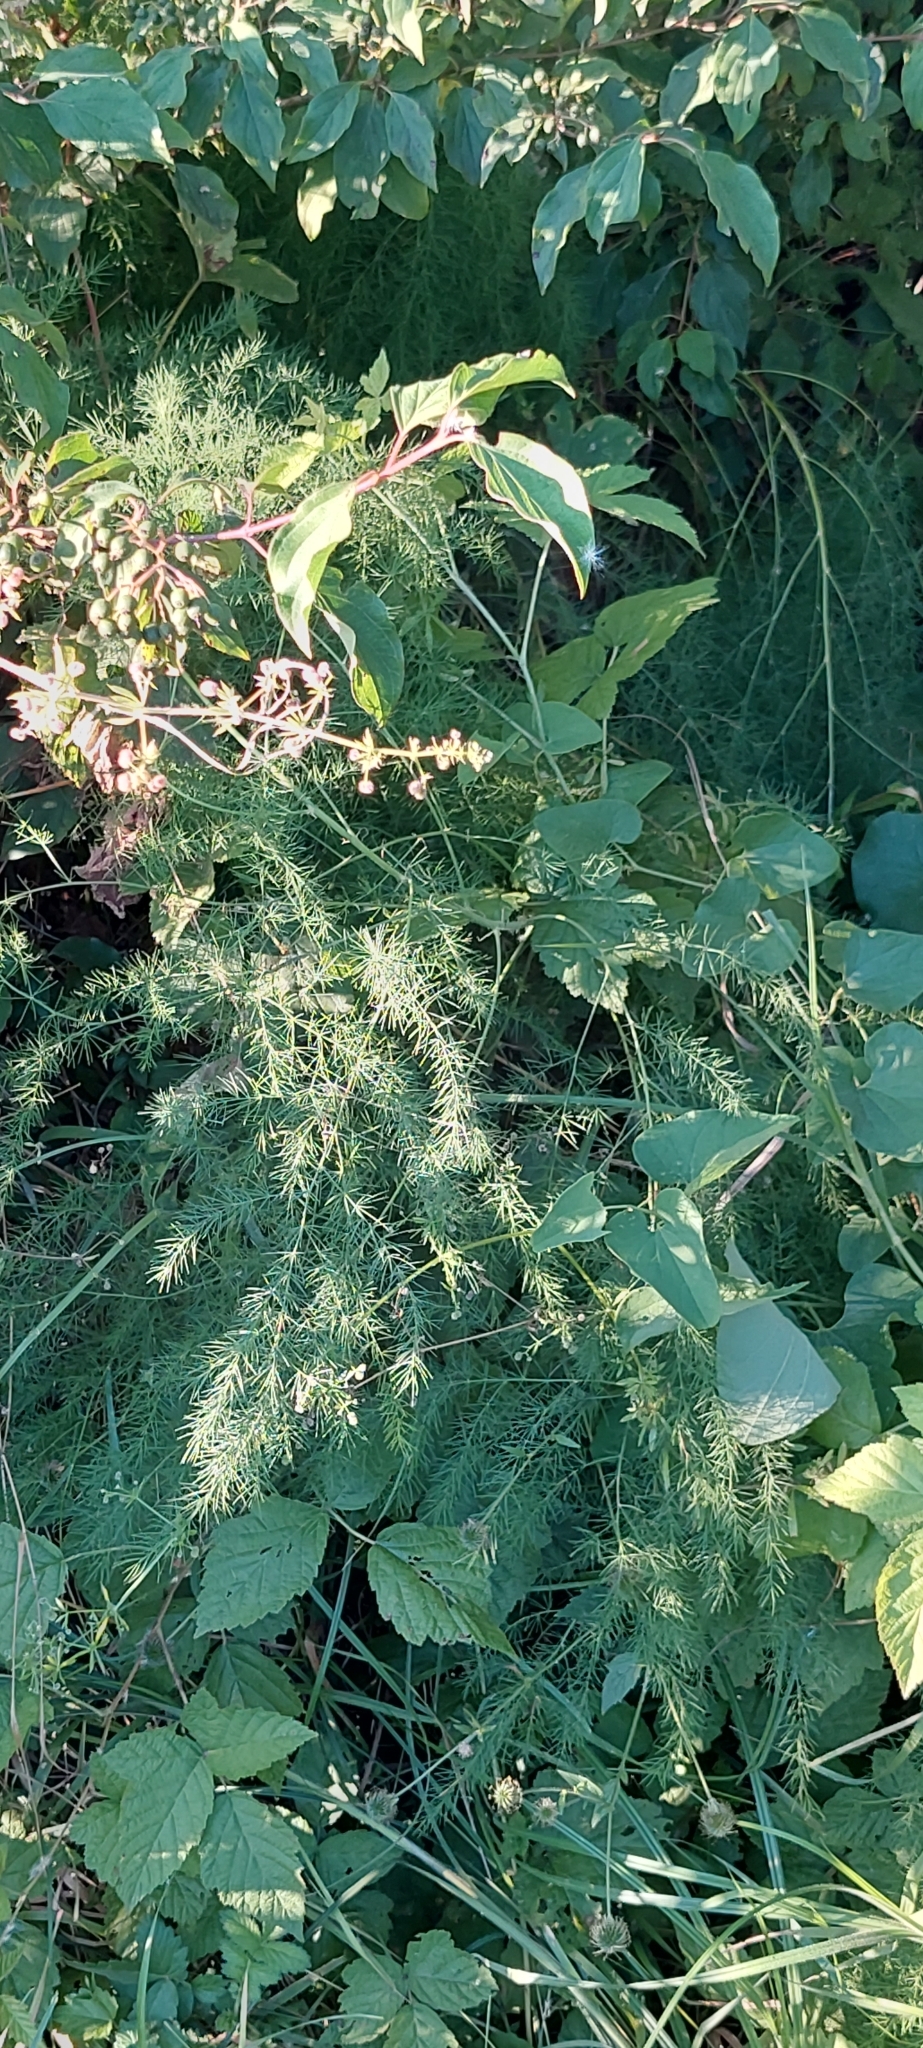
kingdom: Plantae
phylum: Tracheophyta
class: Liliopsida
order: Asparagales
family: Asparagaceae
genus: Asparagus
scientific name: Asparagus officinalis
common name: Garden asparagus
